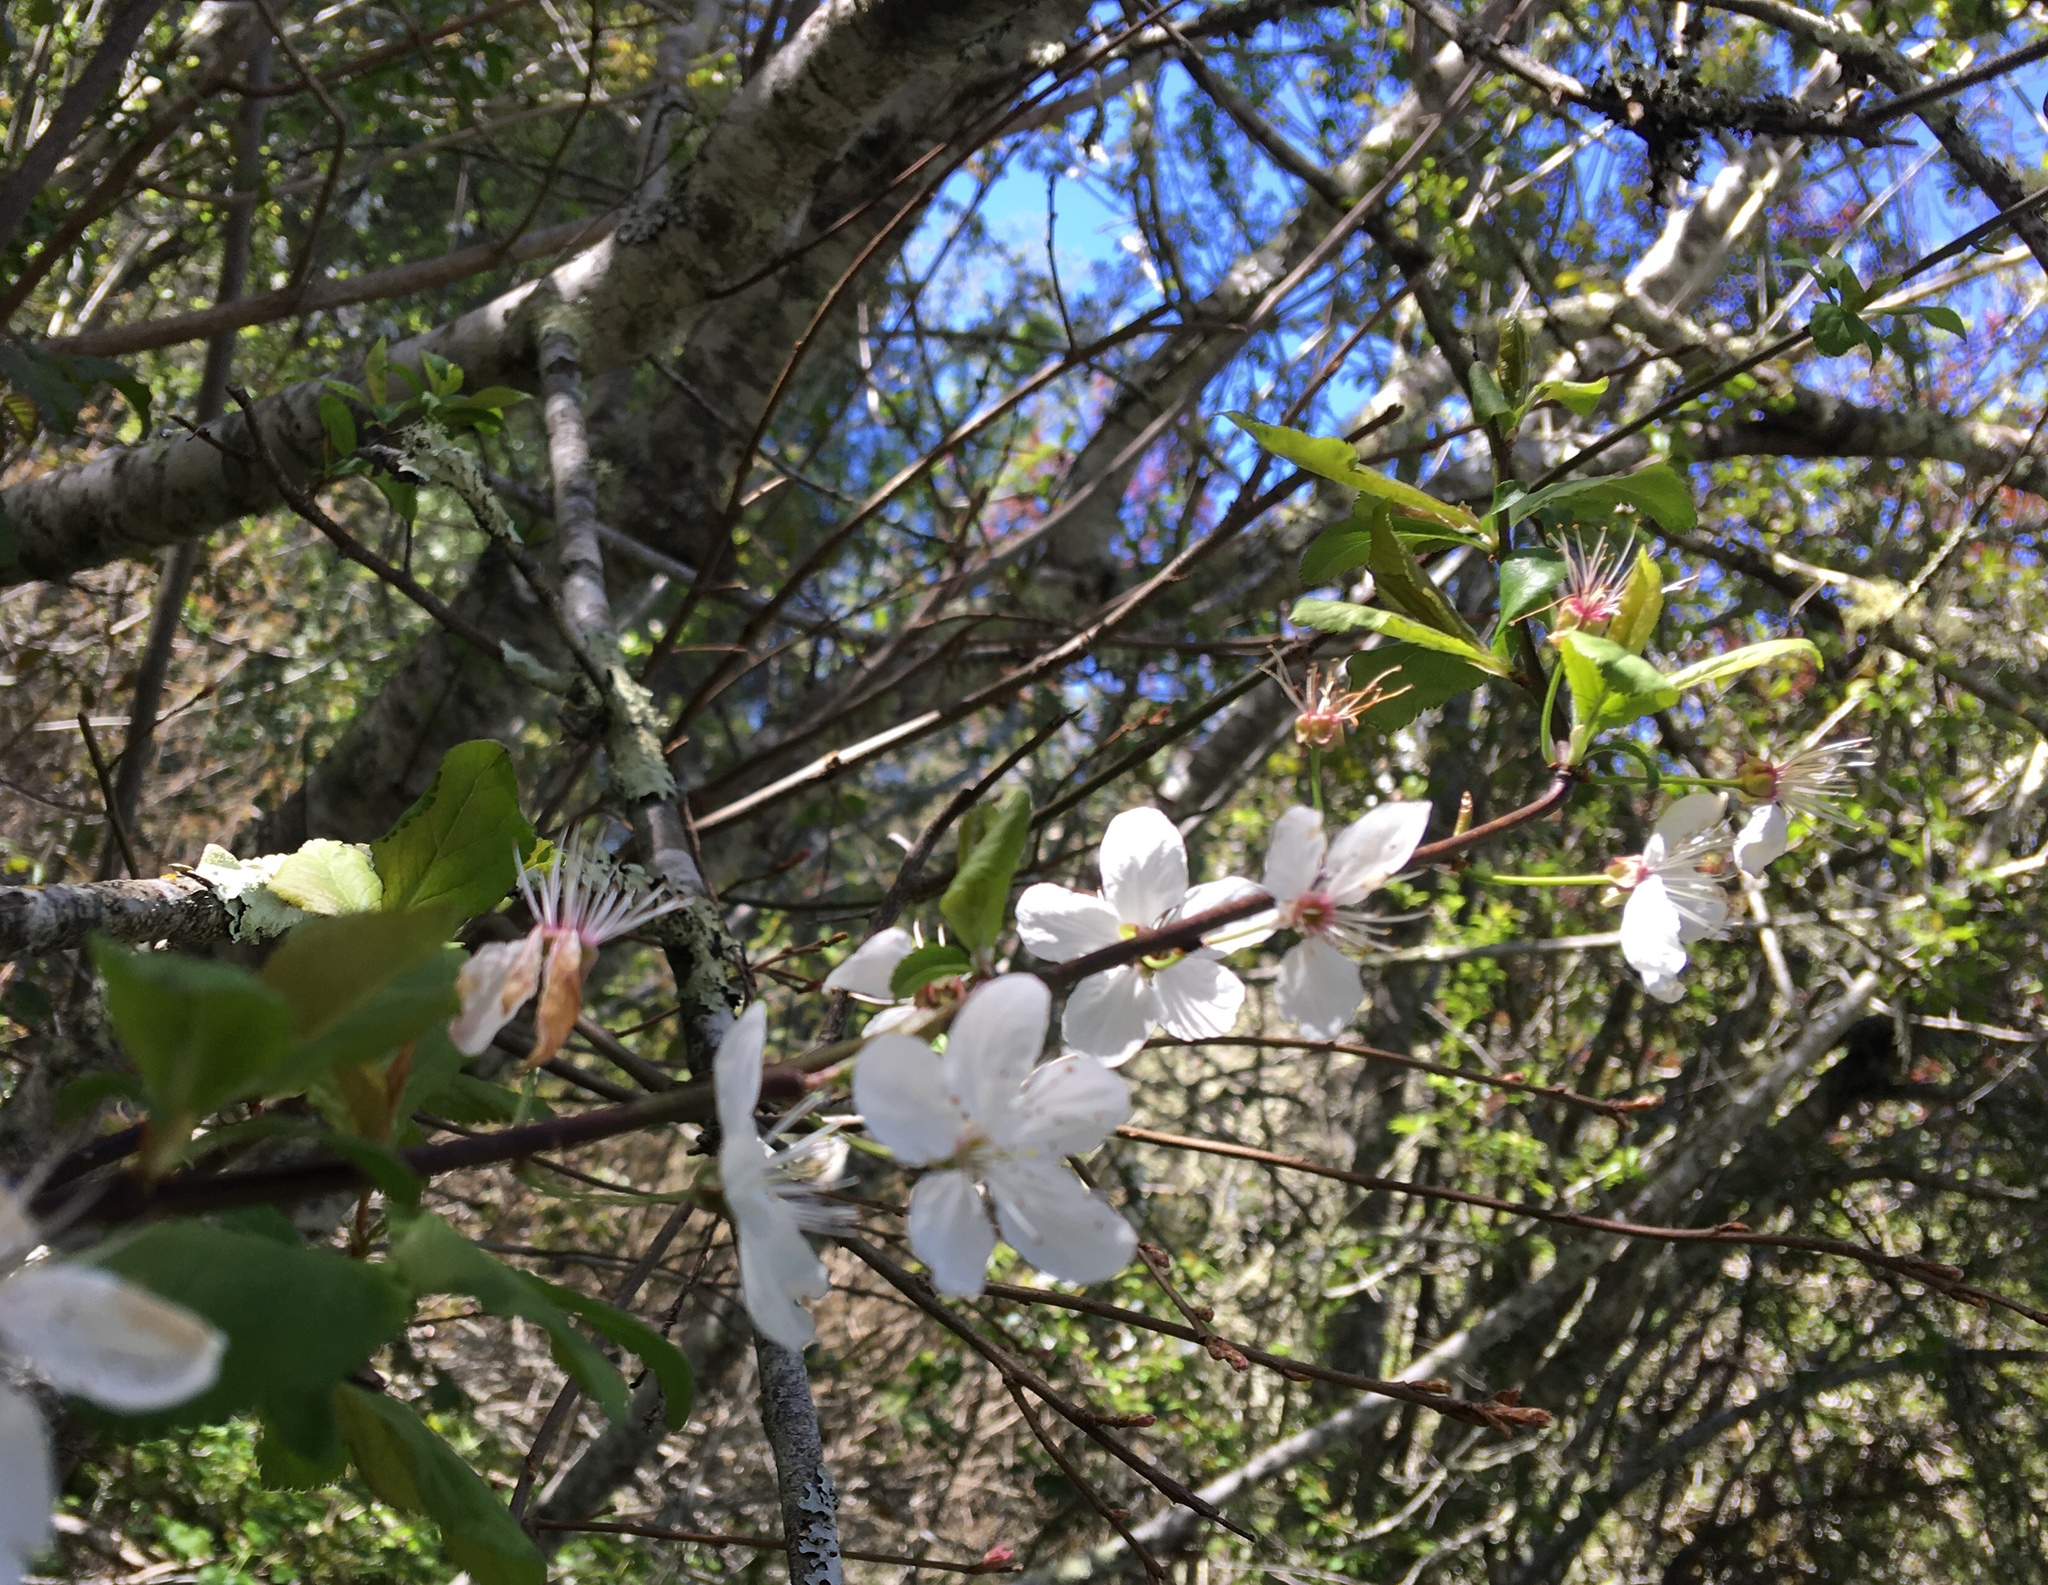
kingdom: Plantae
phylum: Tracheophyta
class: Magnoliopsida
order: Rosales
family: Rosaceae
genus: Prunus
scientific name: Prunus cerasifera
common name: Cherry plum
